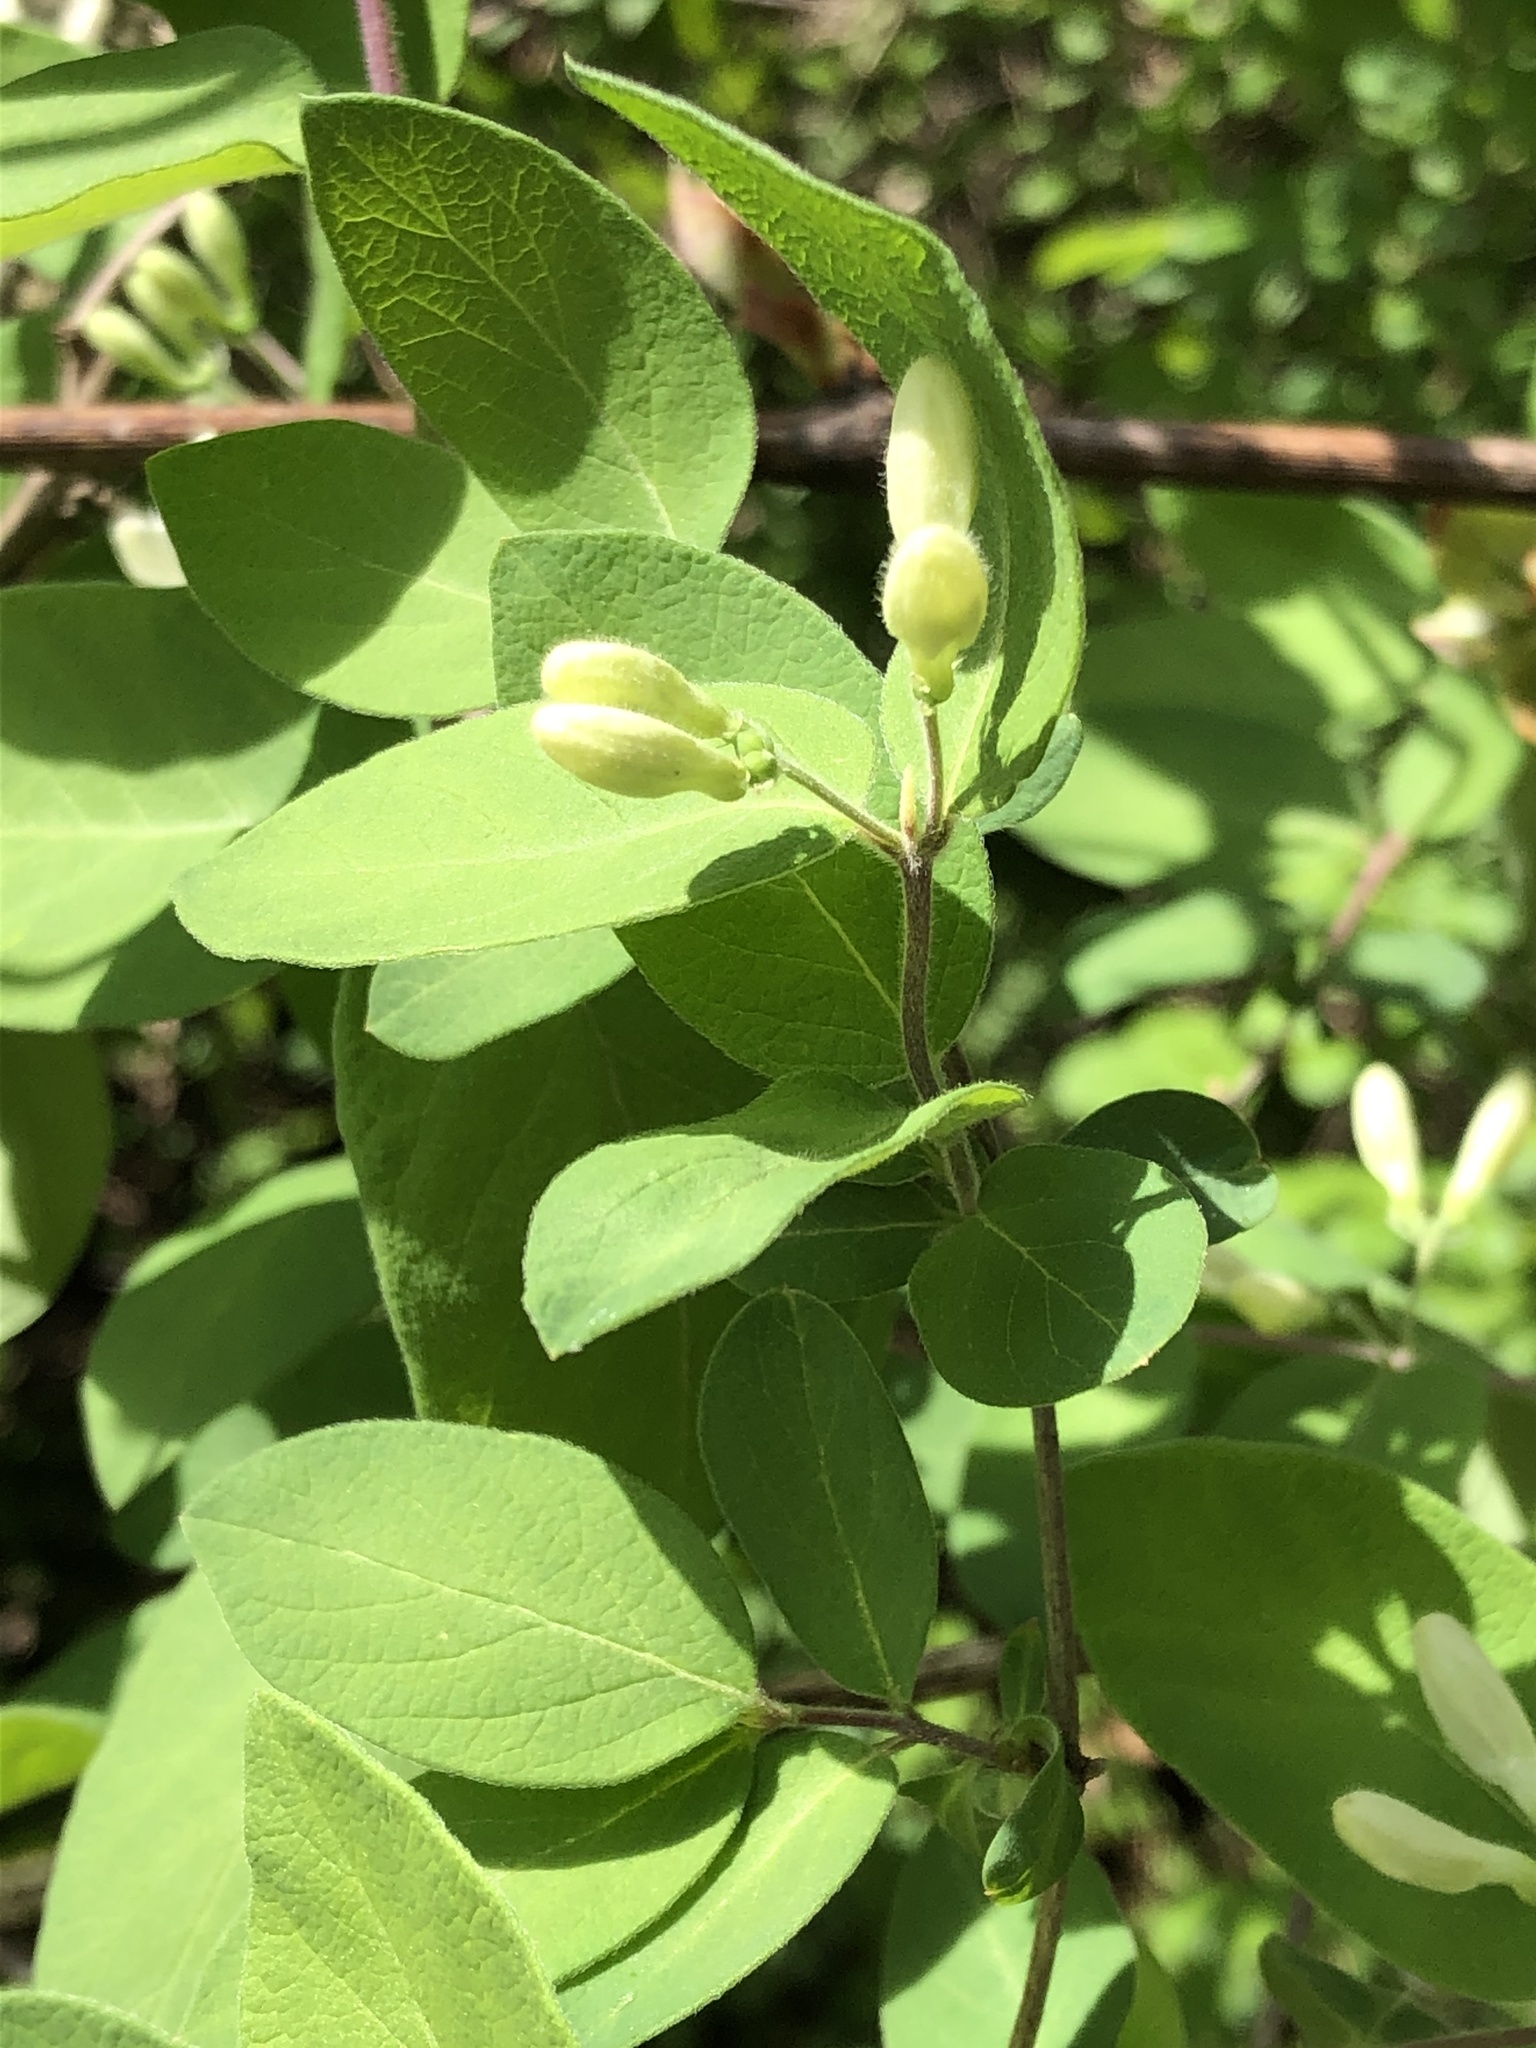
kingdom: Plantae
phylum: Tracheophyta
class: Magnoliopsida
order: Dipsacales
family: Caprifoliaceae
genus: Lonicera
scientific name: Lonicera morrowii
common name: Morrow's honeysuckle
